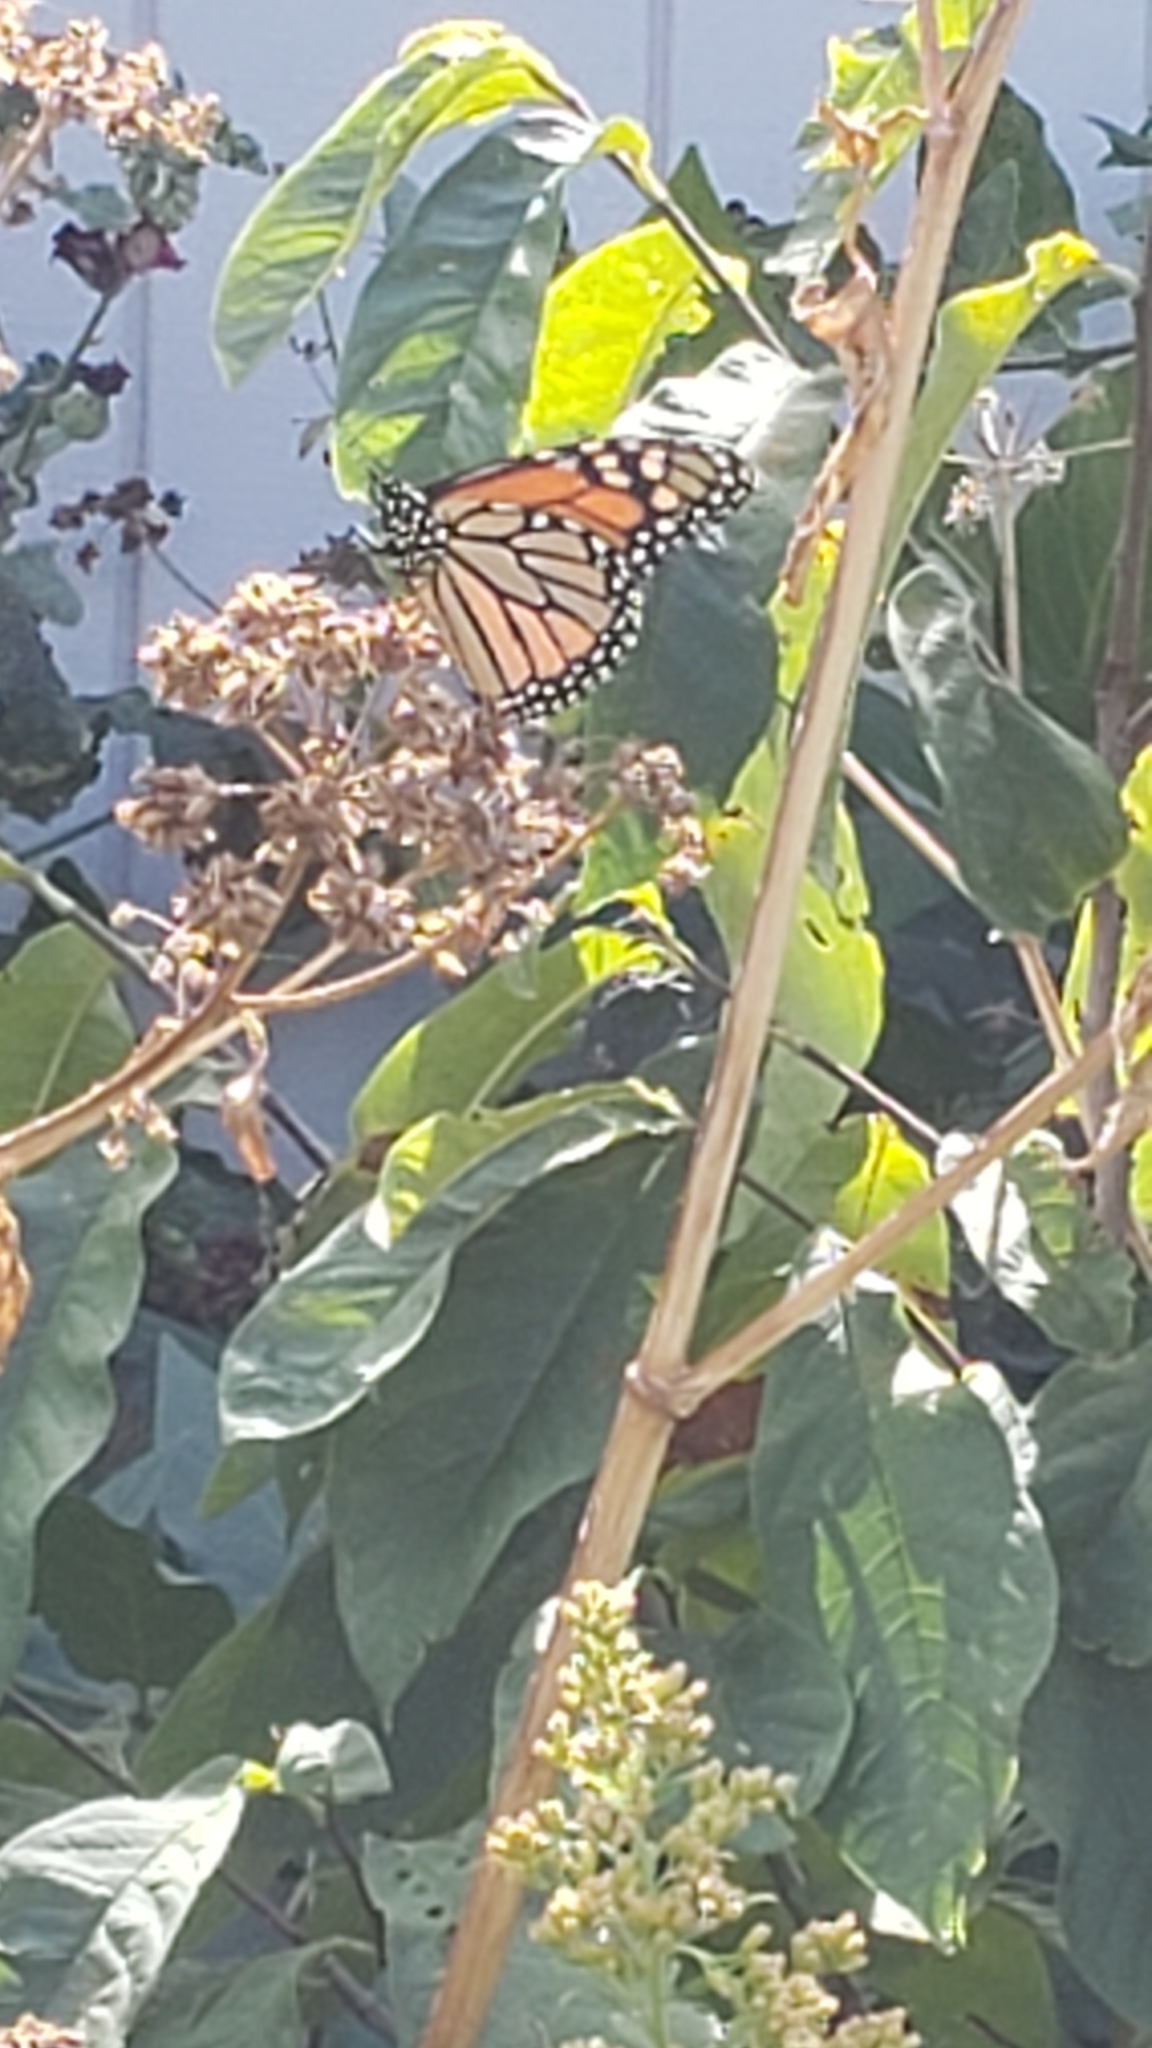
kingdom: Animalia
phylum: Arthropoda
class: Insecta
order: Lepidoptera
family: Nymphalidae
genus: Danaus
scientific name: Danaus plexippus
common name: Monarch
